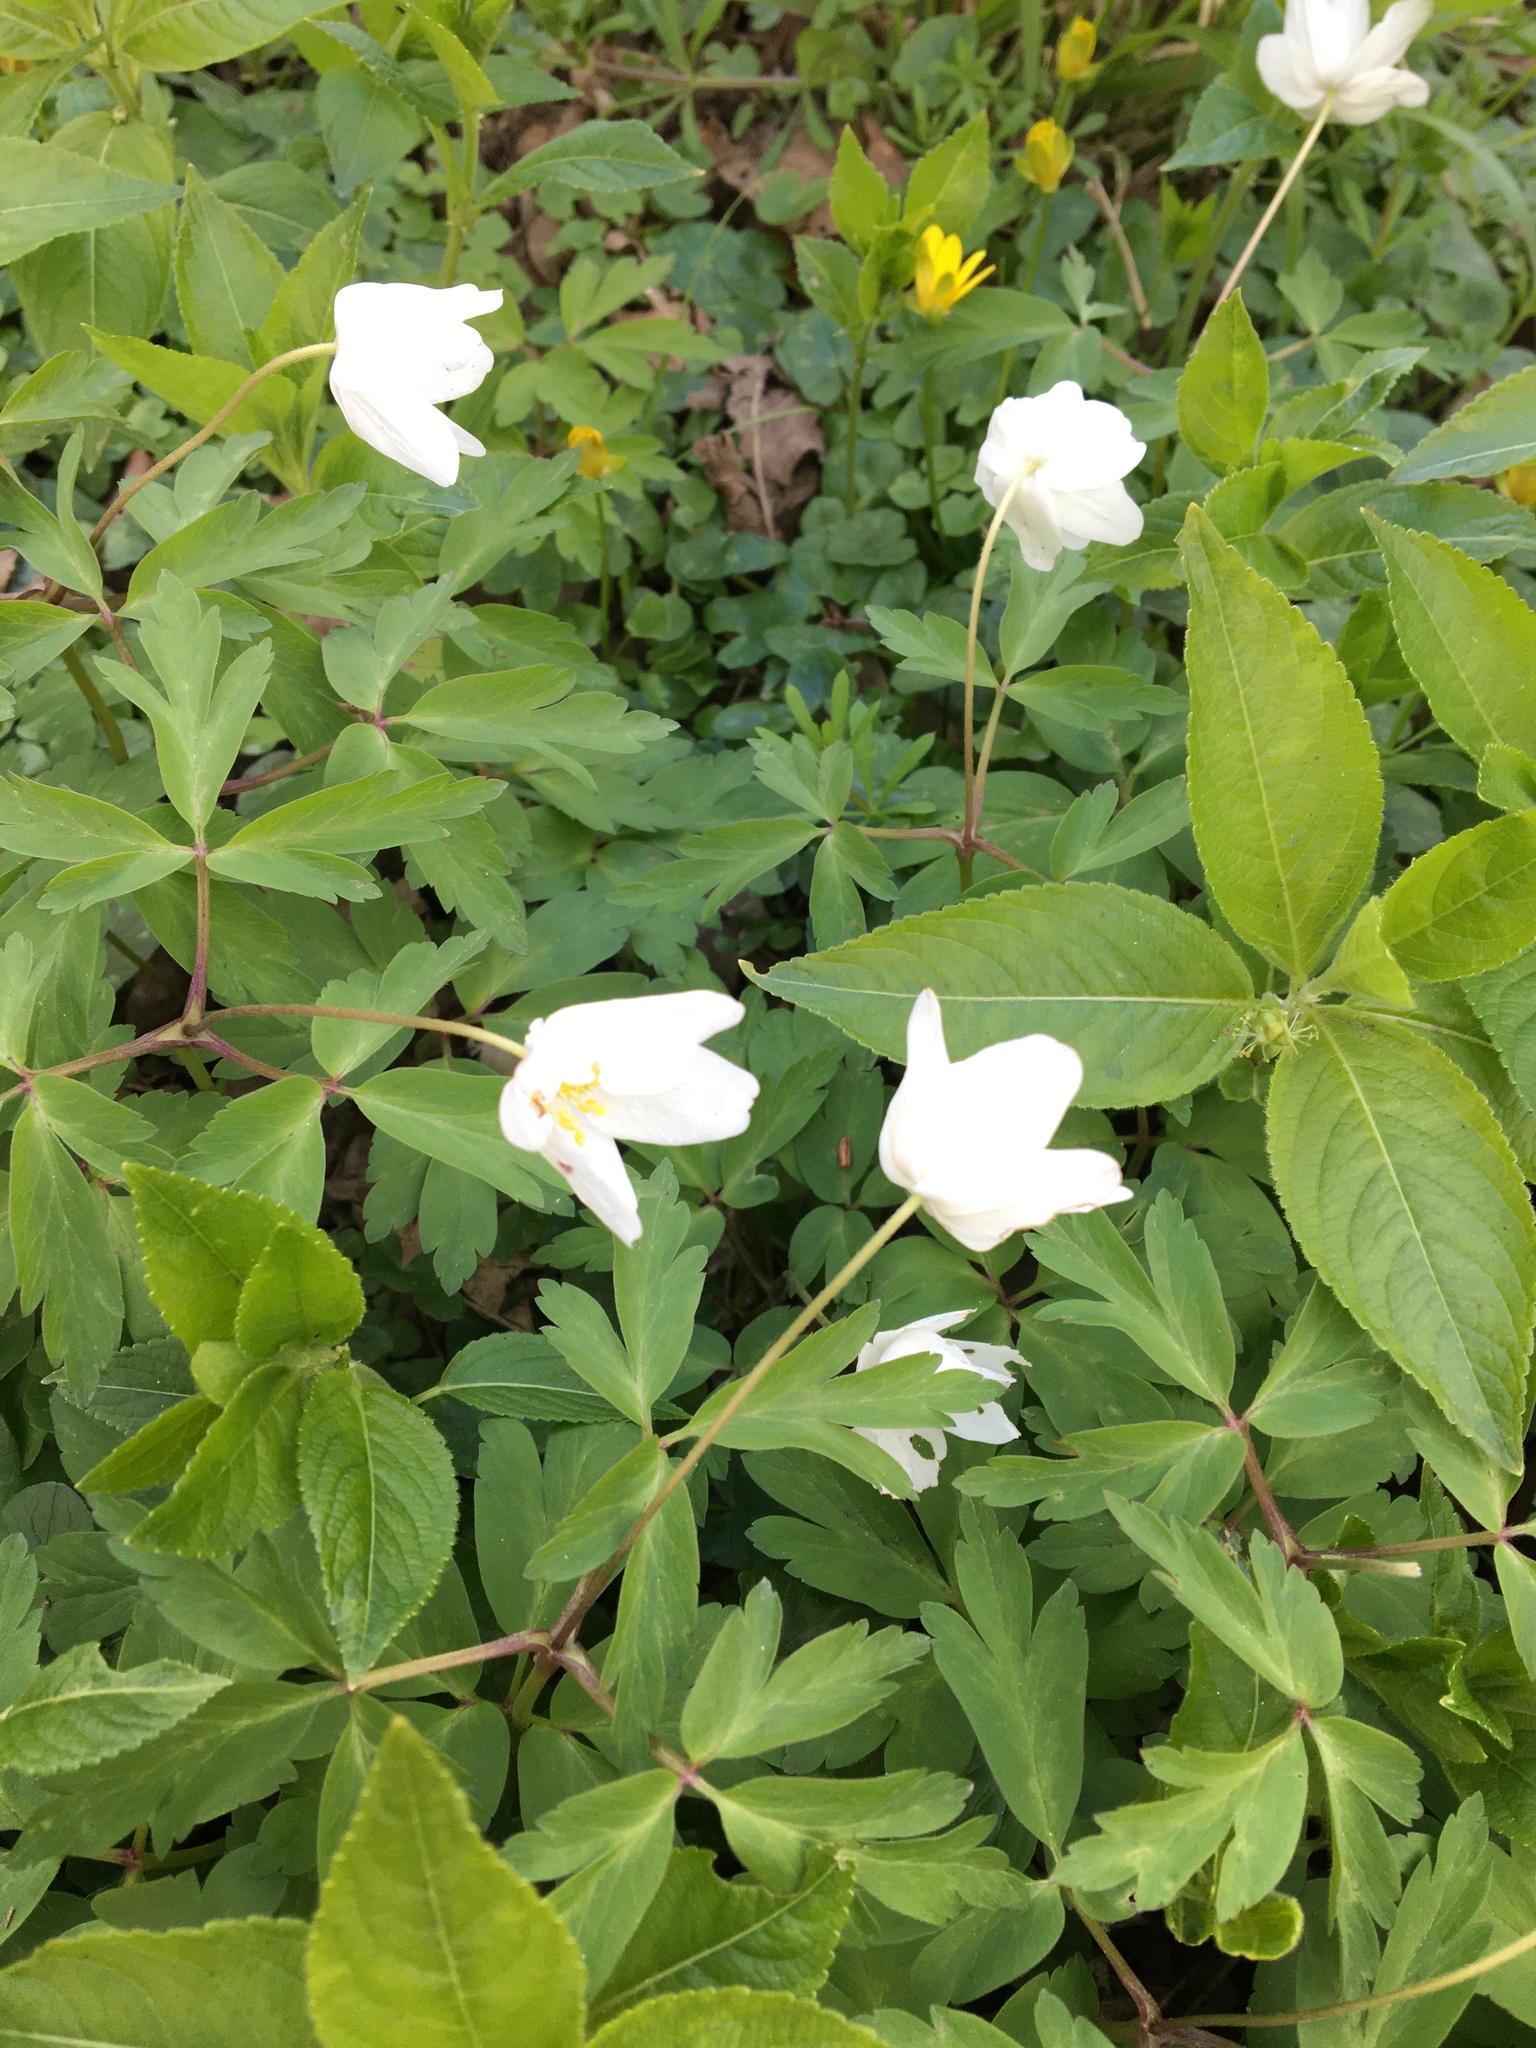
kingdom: Plantae
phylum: Tracheophyta
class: Magnoliopsida
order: Ranunculales
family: Ranunculaceae
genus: Anemone
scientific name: Anemone nemorosa
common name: Wood anemone
